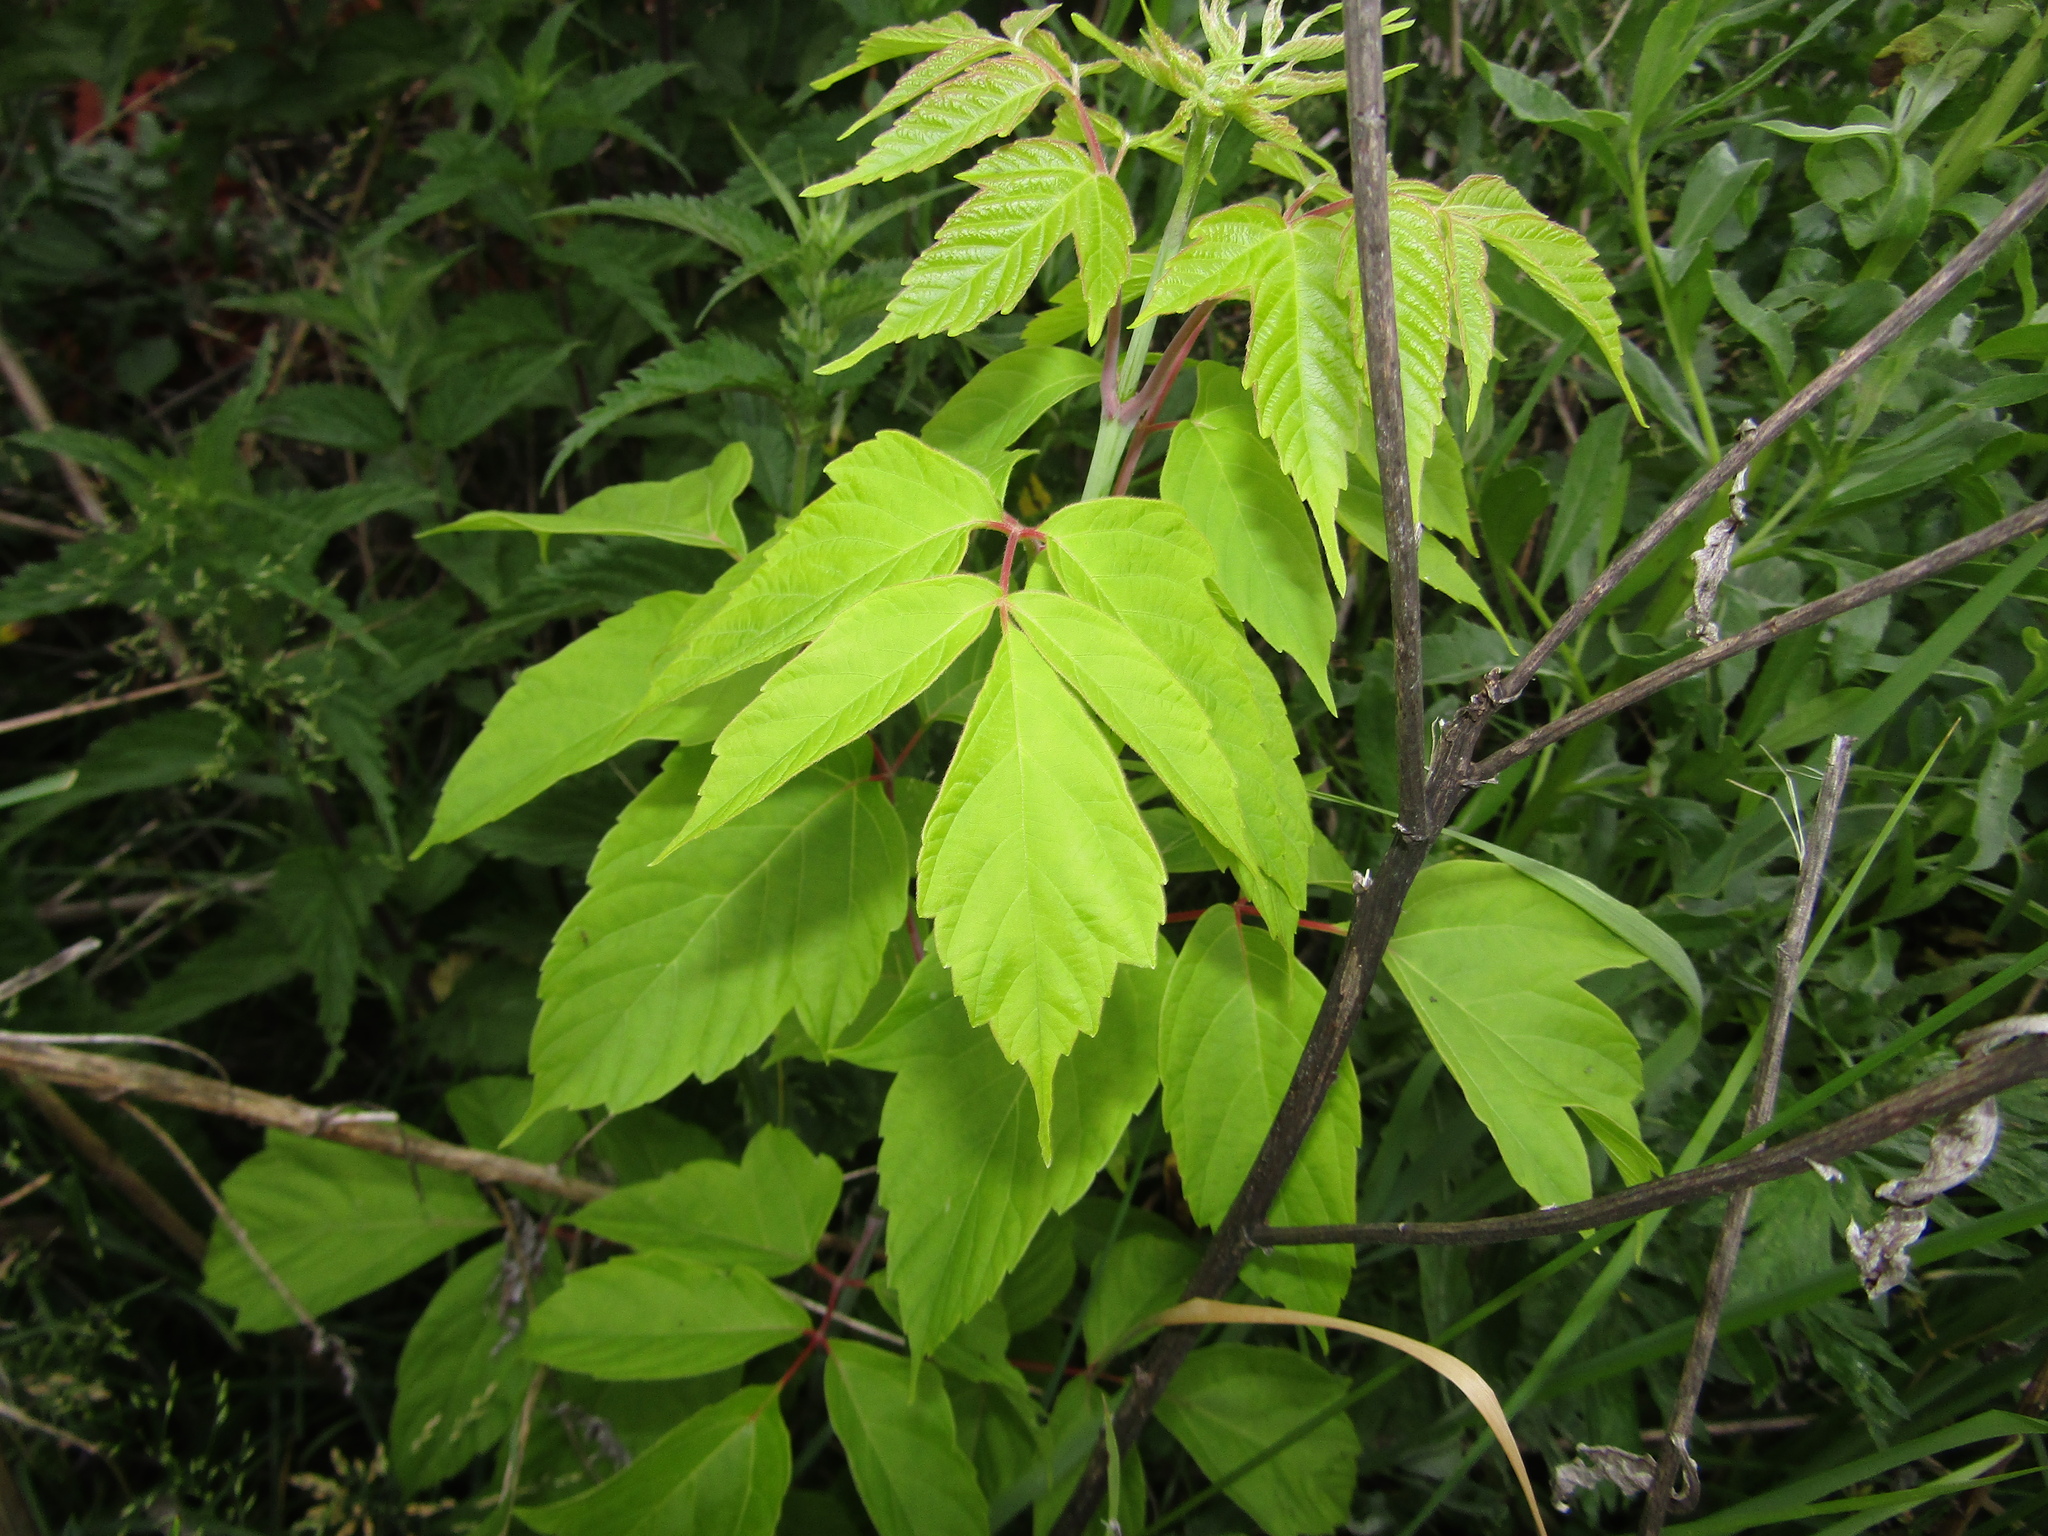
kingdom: Plantae
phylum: Tracheophyta
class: Magnoliopsida
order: Sapindales
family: Sapindaceae
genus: Acer
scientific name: Acer negundo
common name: Ashleaf maple
